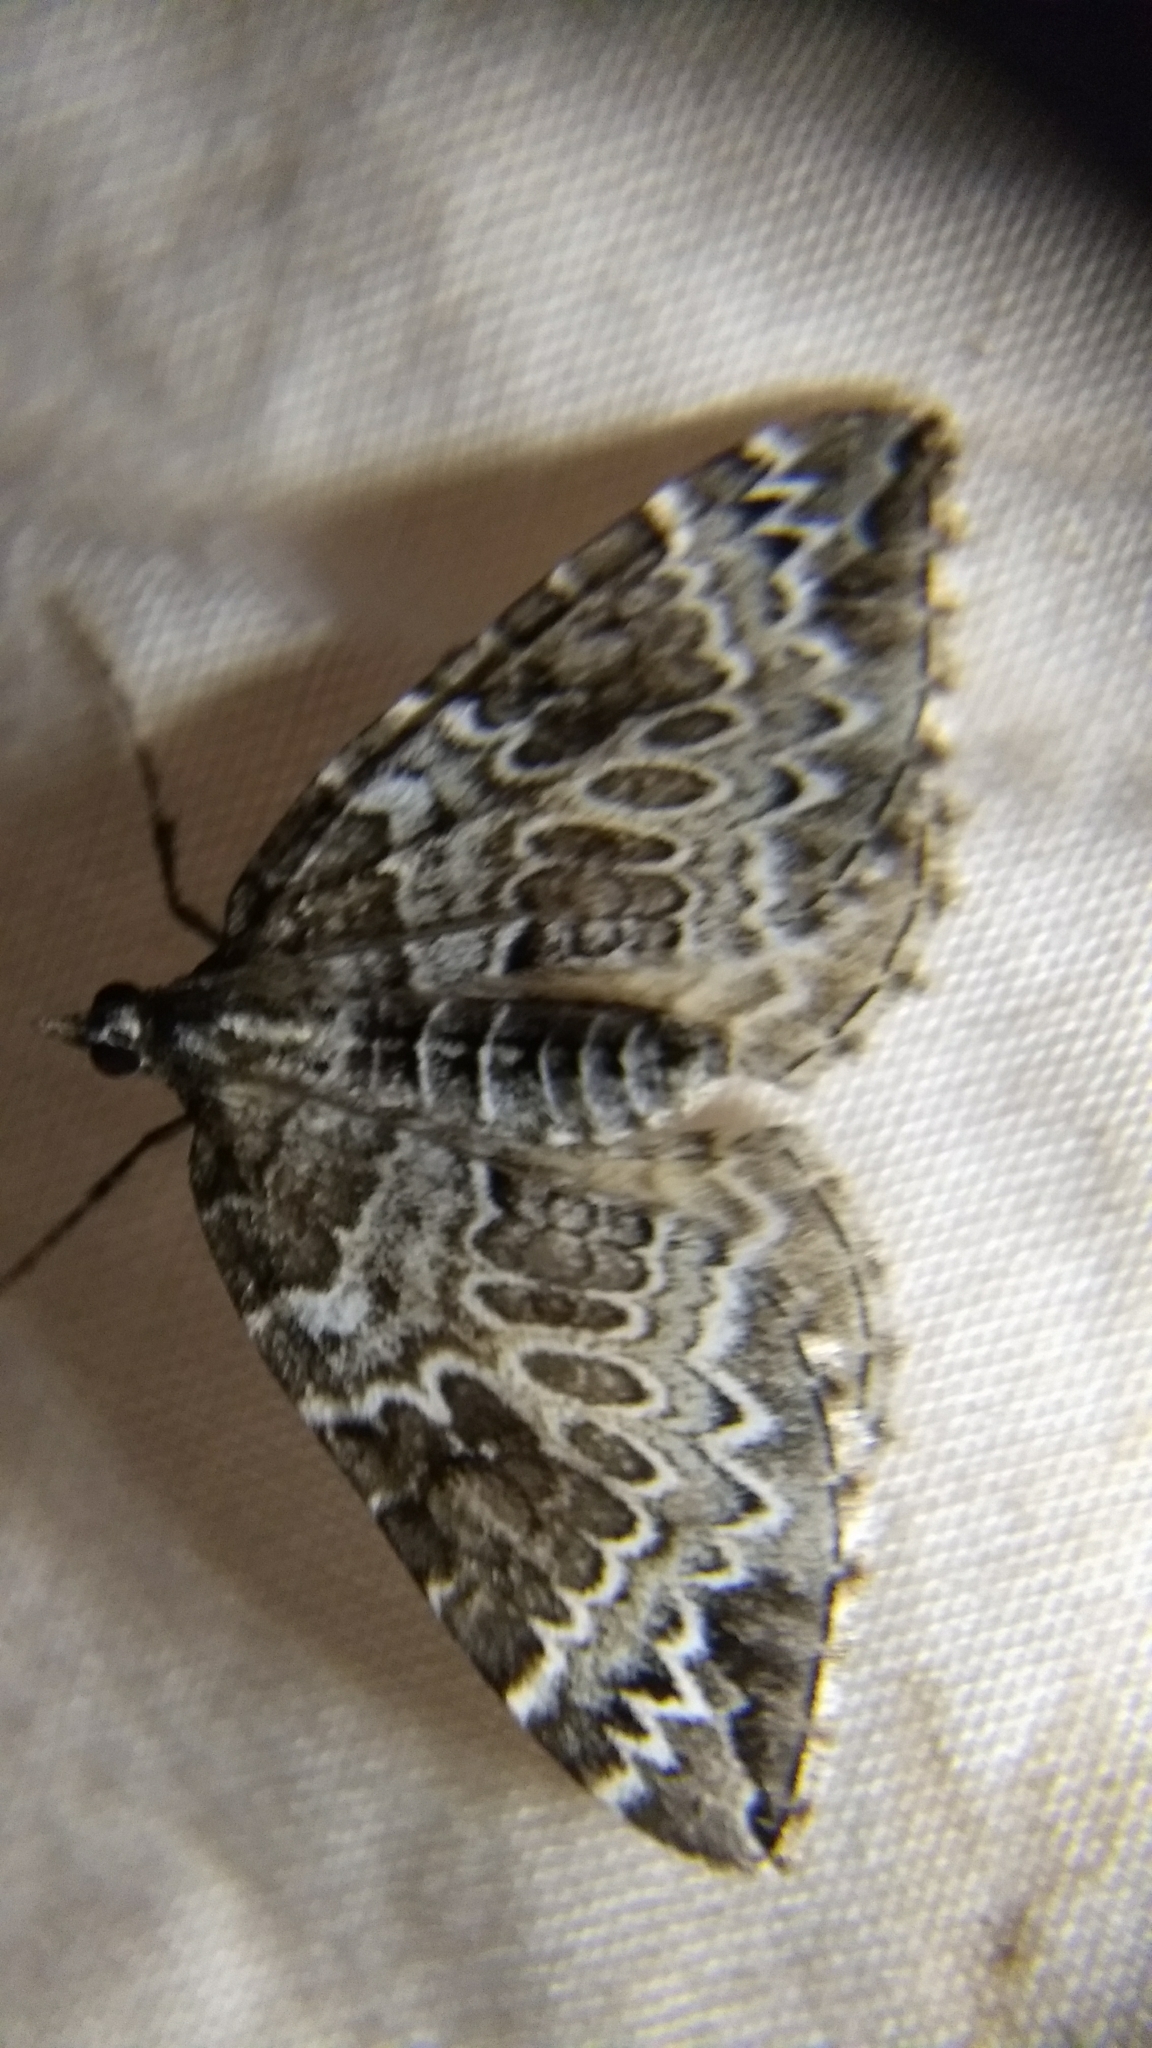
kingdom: Animalia
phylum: Arthropoda
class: Insecta
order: Lepidoptera
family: Geometridae
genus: Eulithis
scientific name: Eulithis explanata
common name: White eulithis
